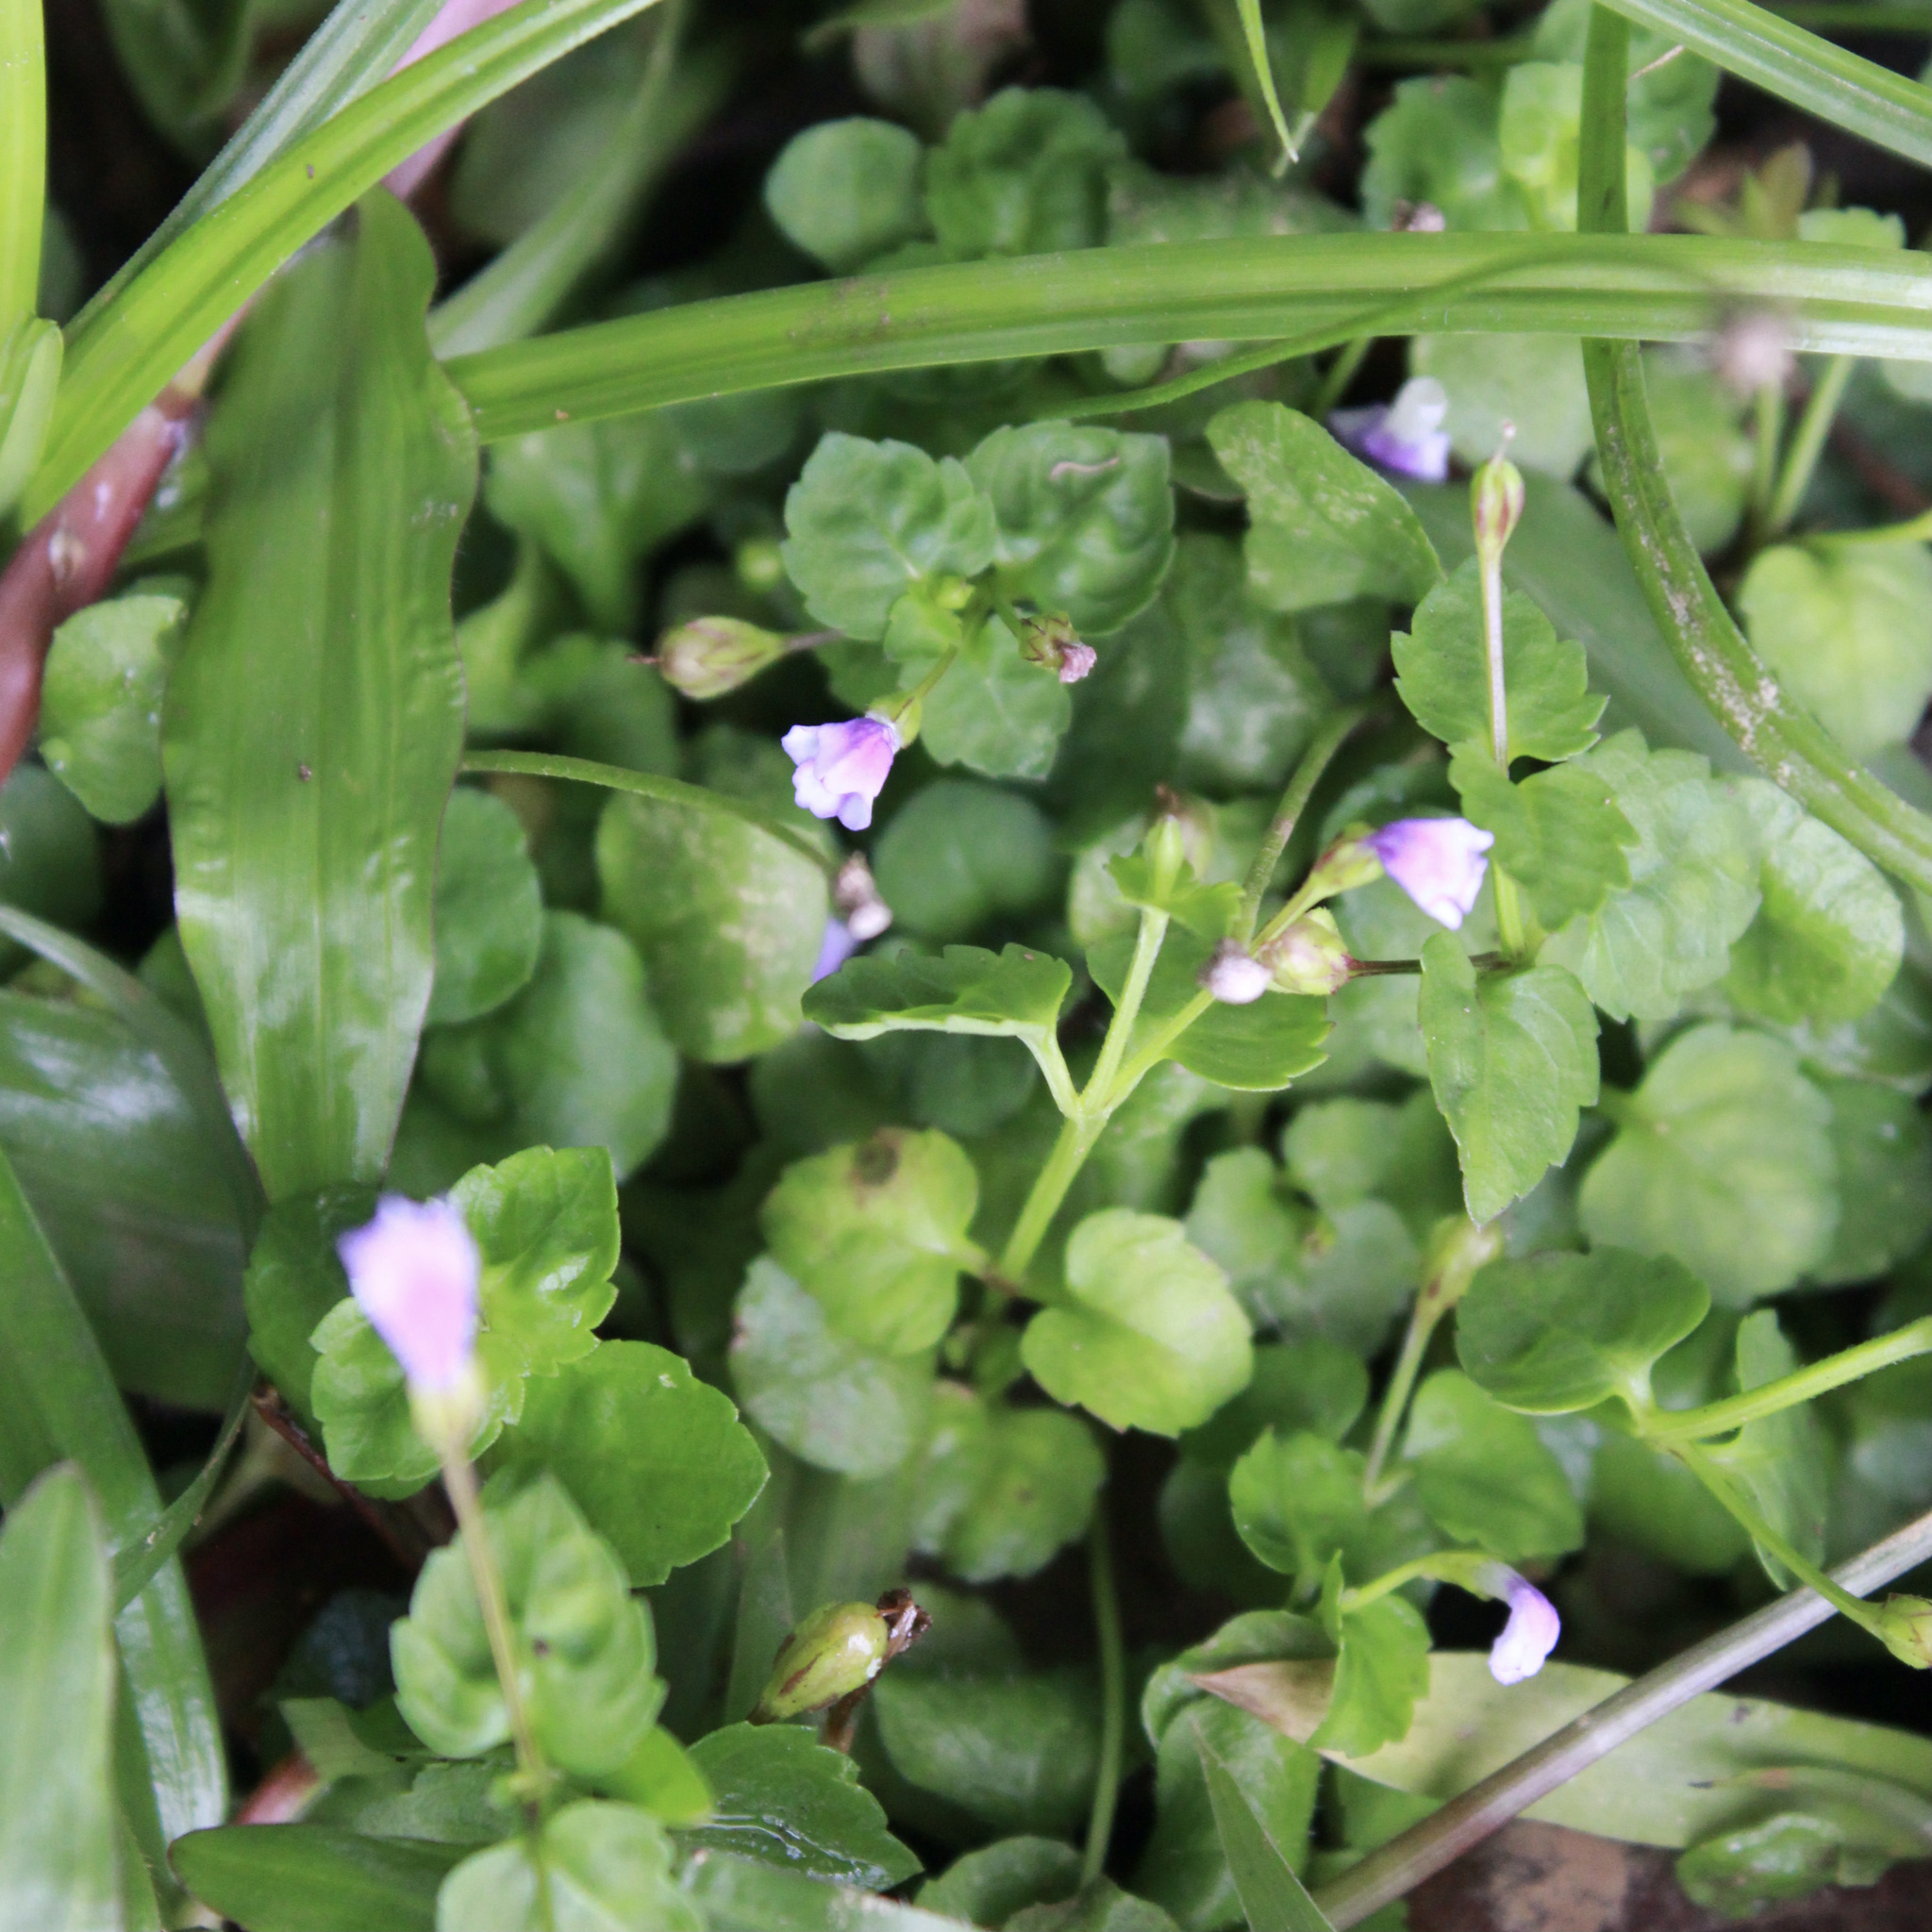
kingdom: Plantae
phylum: Tracheophyta
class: Magnoliopsida
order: Lamiales
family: Linderniaceae
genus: Torenia
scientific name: Torenia crustacea
